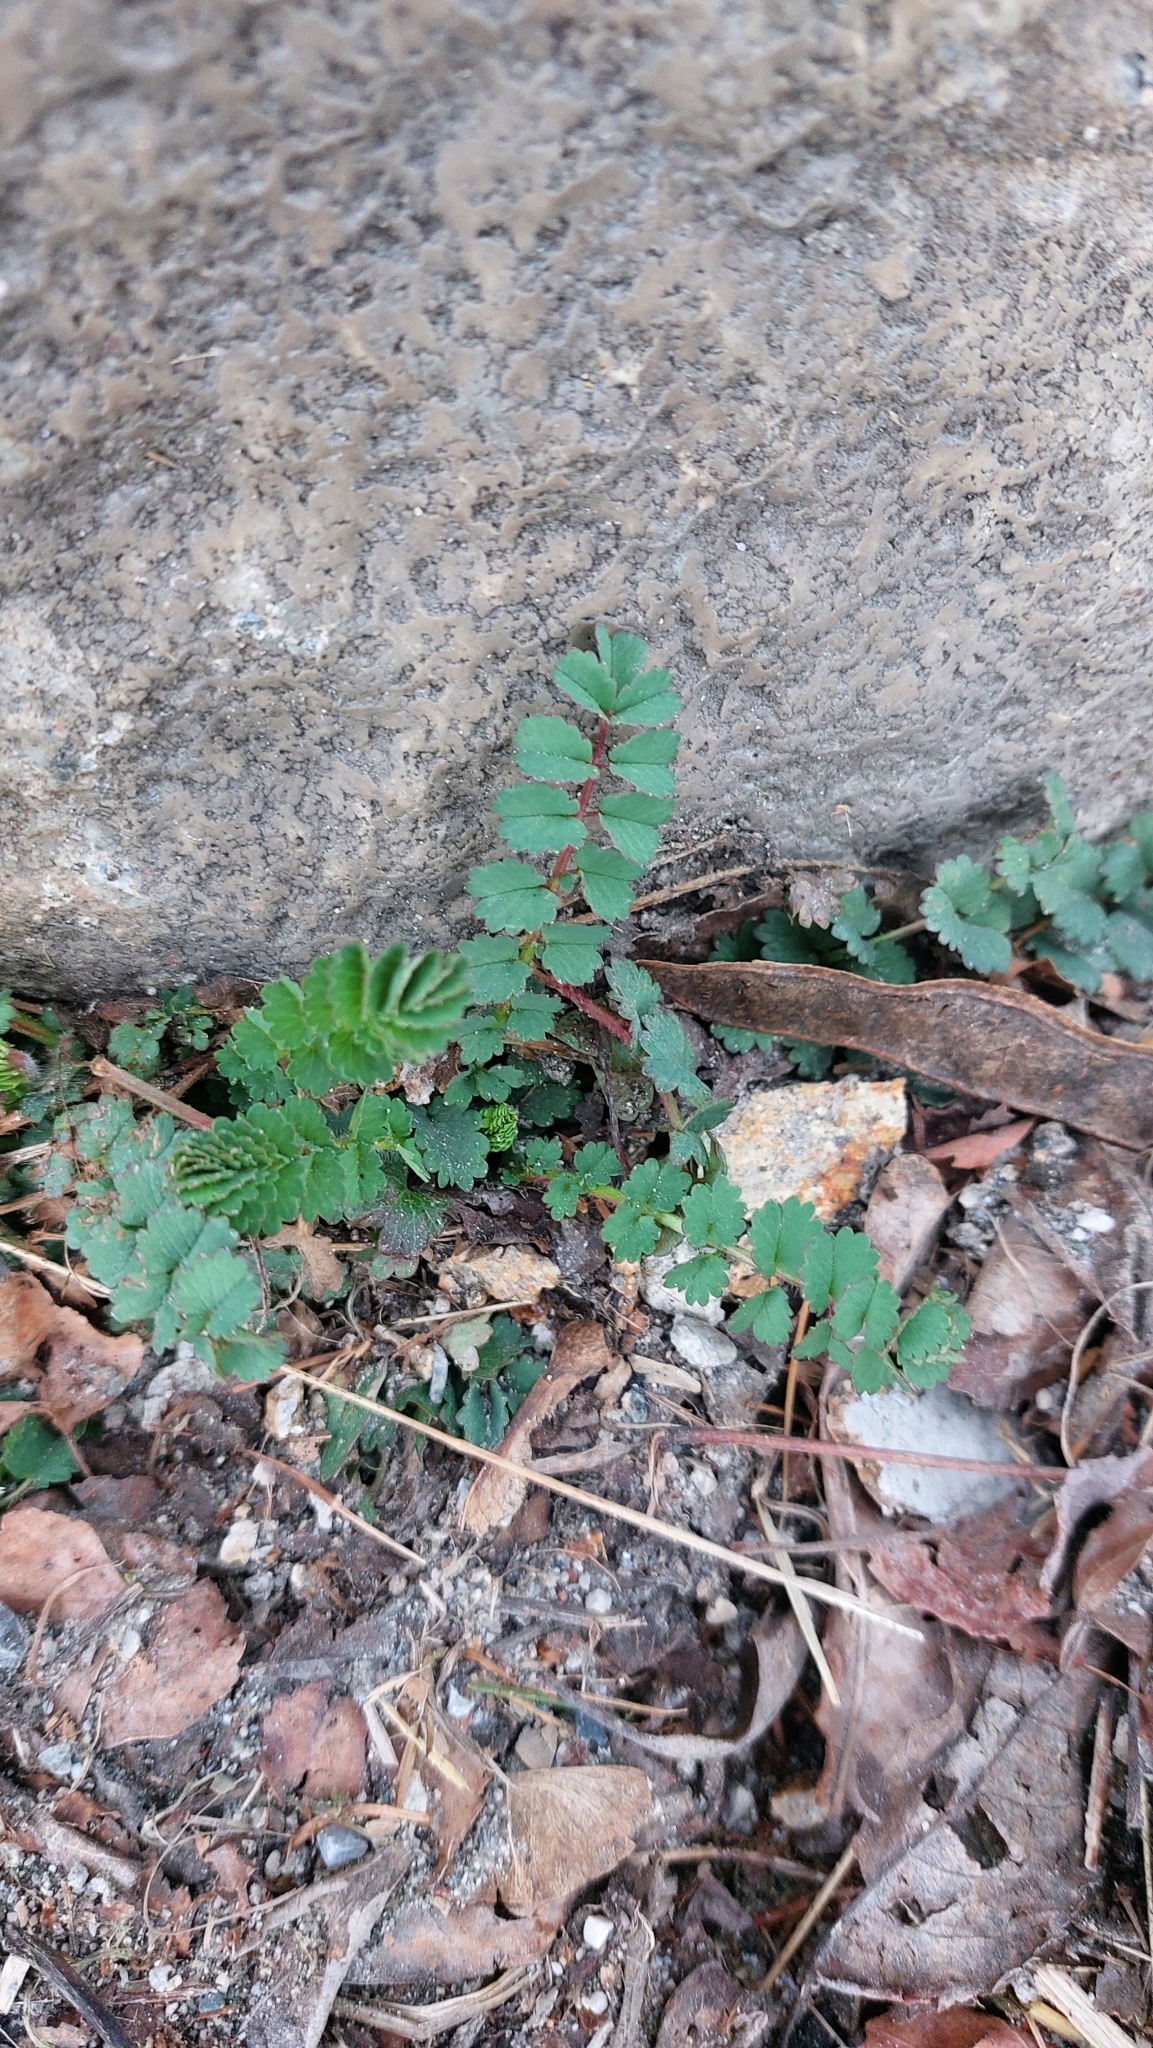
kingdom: Plantae
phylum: Tracheophyta
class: Magnoliopsida
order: Rosales
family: Rosaceae
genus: Poterium
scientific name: Poterium sanguisorba
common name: Salad burnet
